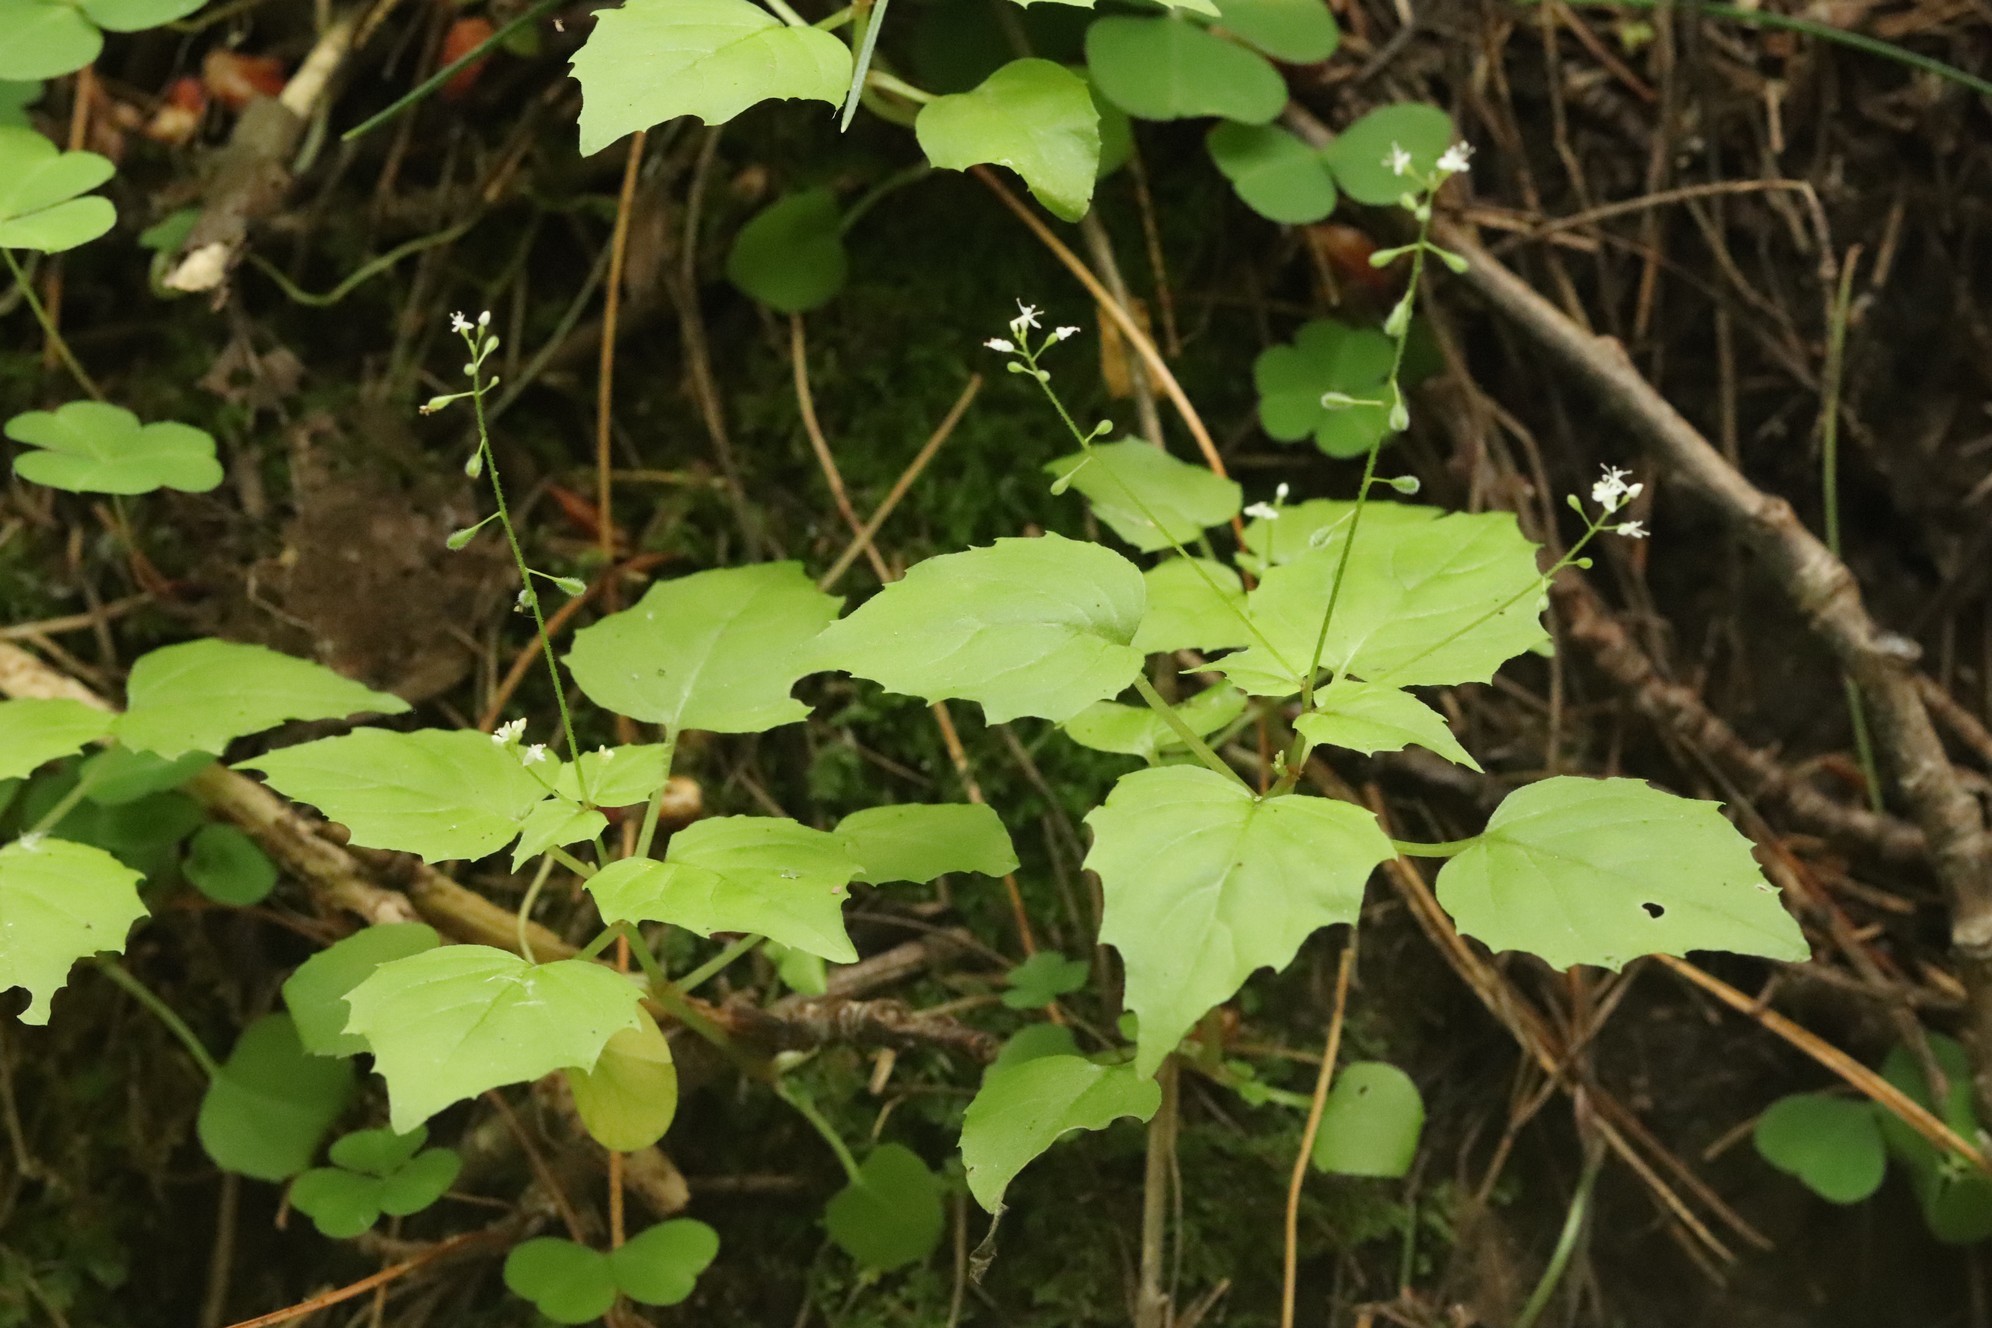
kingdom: Plantae
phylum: Tracheophyta
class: Magnoliopsida
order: Myrtales
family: Onagraceae
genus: Circaea
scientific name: Circaea alpina
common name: Alpine enchanter's-nightshade
